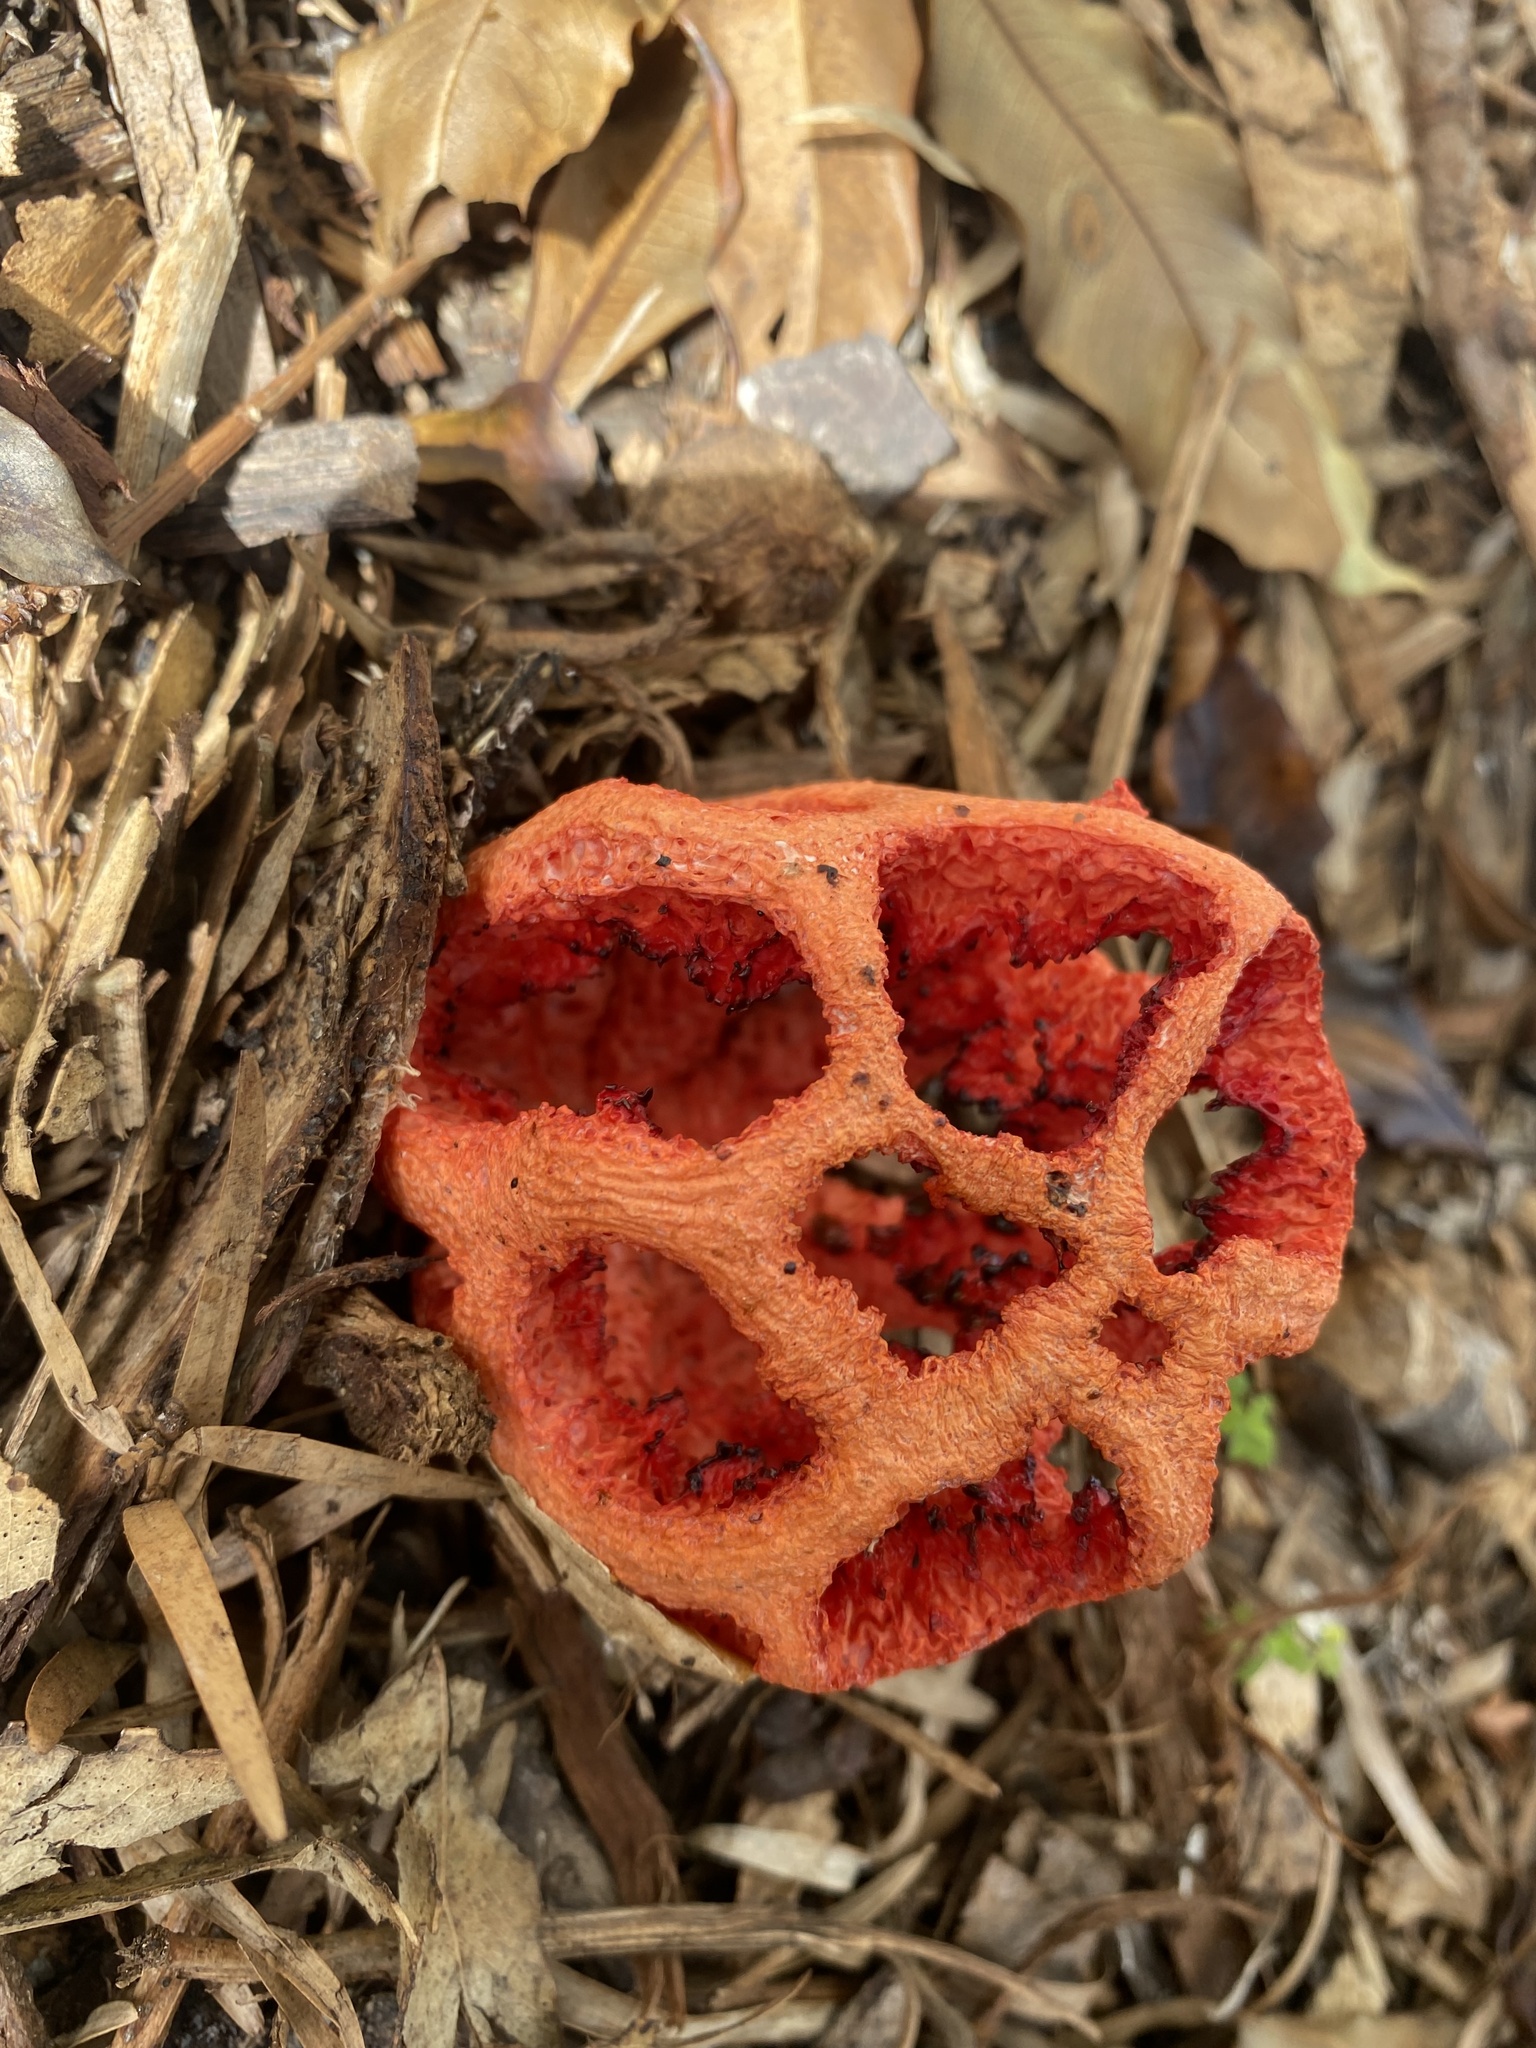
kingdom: Fungi
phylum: Basidiomycota
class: Agaricomycetes
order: Phallales
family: Phallaceae
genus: Clathrus
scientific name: Clathrus ruber
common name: Red cage
